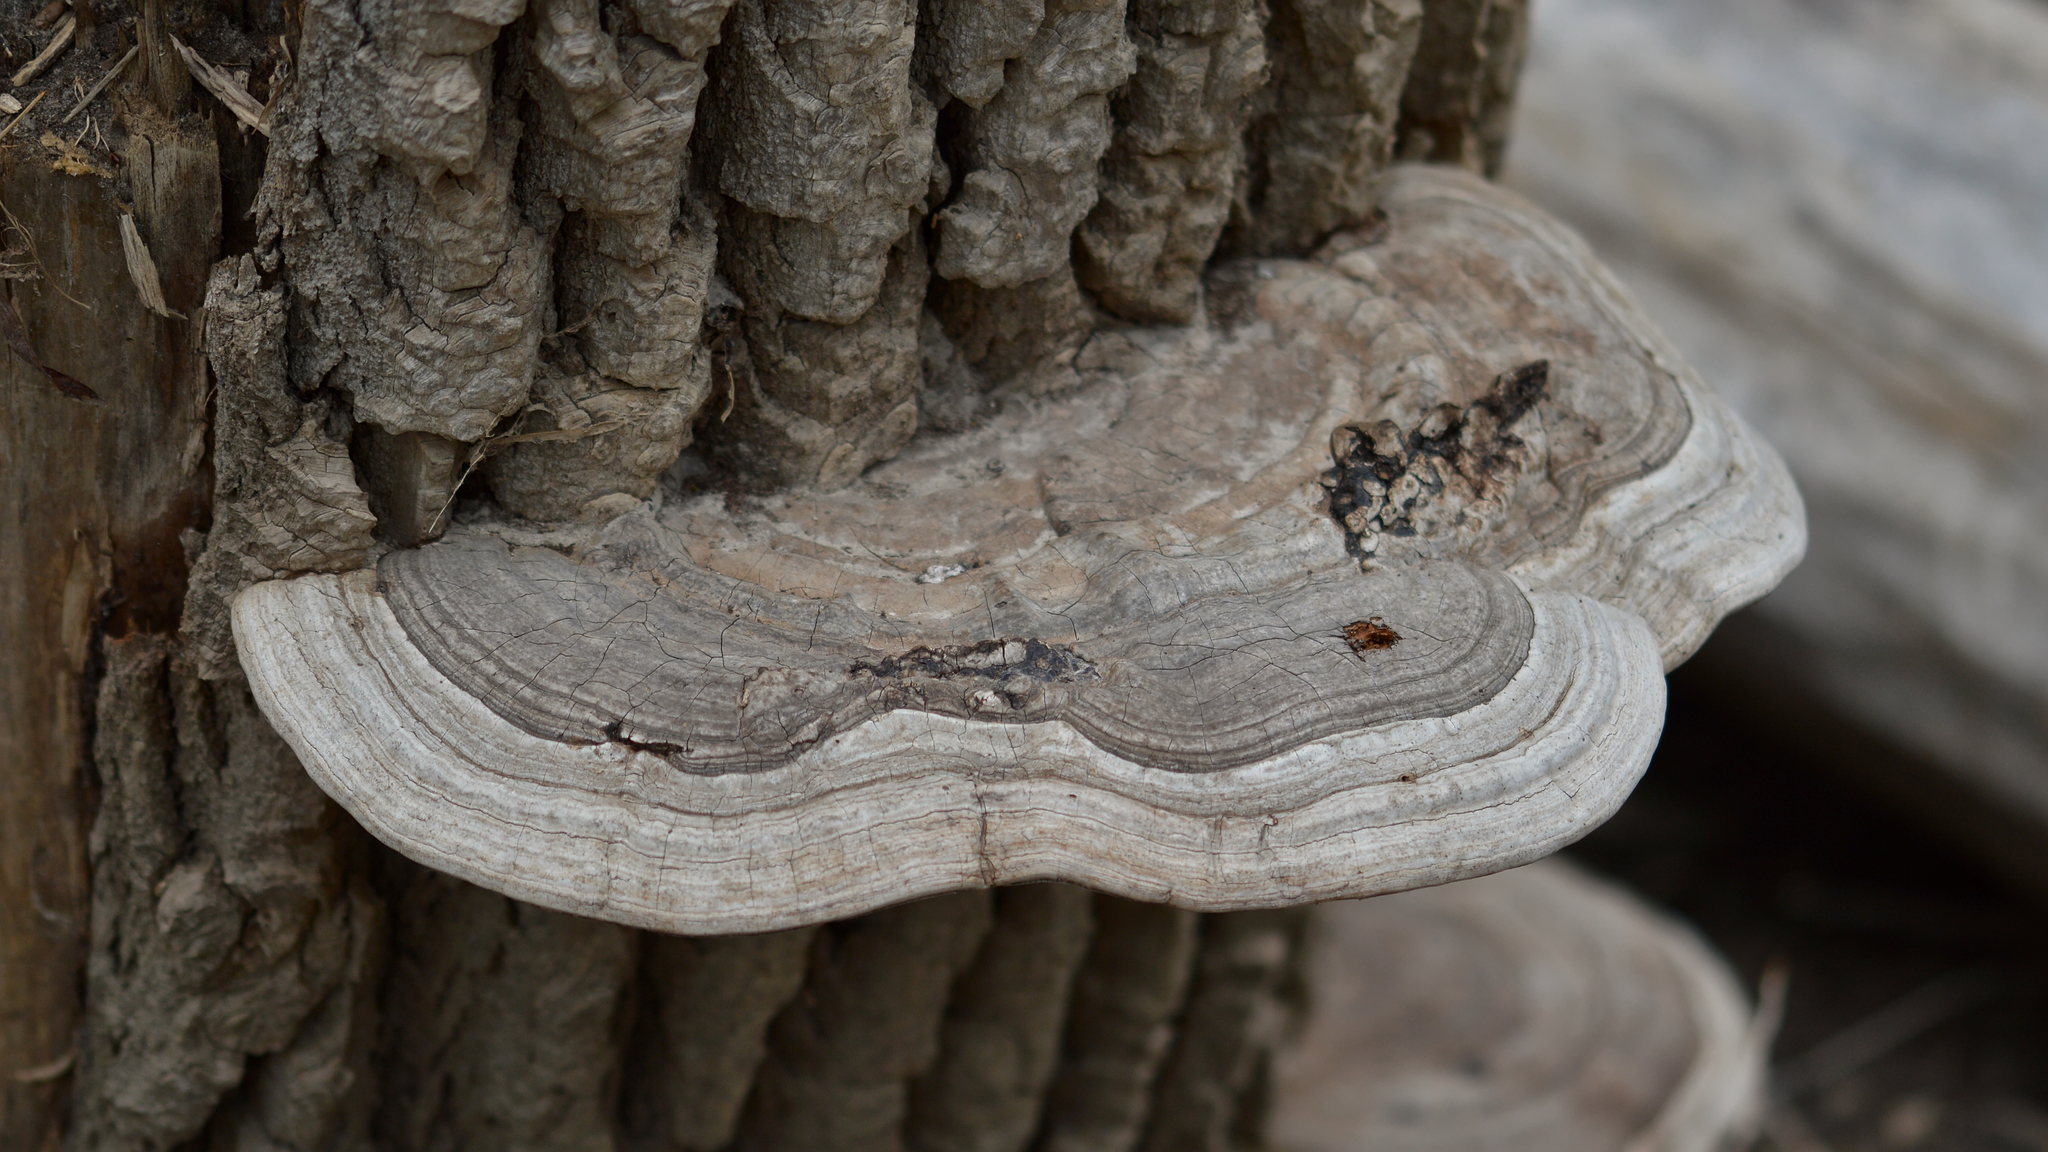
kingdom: Fungi
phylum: Basidiomycota
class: Agaricomycetes
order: Polyporales
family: Polyporaceae
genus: Ganoderma
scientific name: Ganoderma applanatum
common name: Artist's bracket
